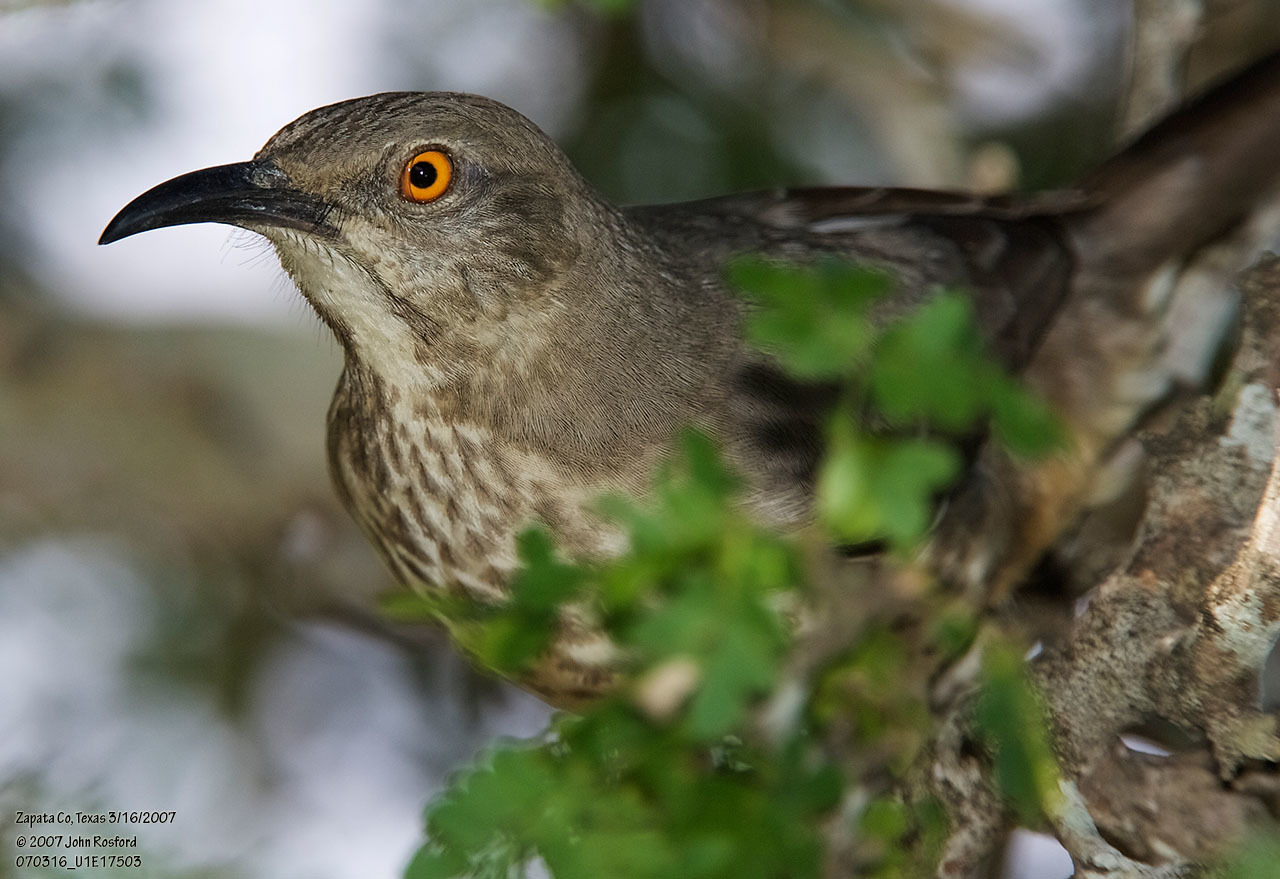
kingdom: Animalia
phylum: Chordata
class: Aves
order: Passeriformes
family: Mimidae
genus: Toxostoma
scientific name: Toxostoma curvirostre
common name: Curve-billed thrasher
